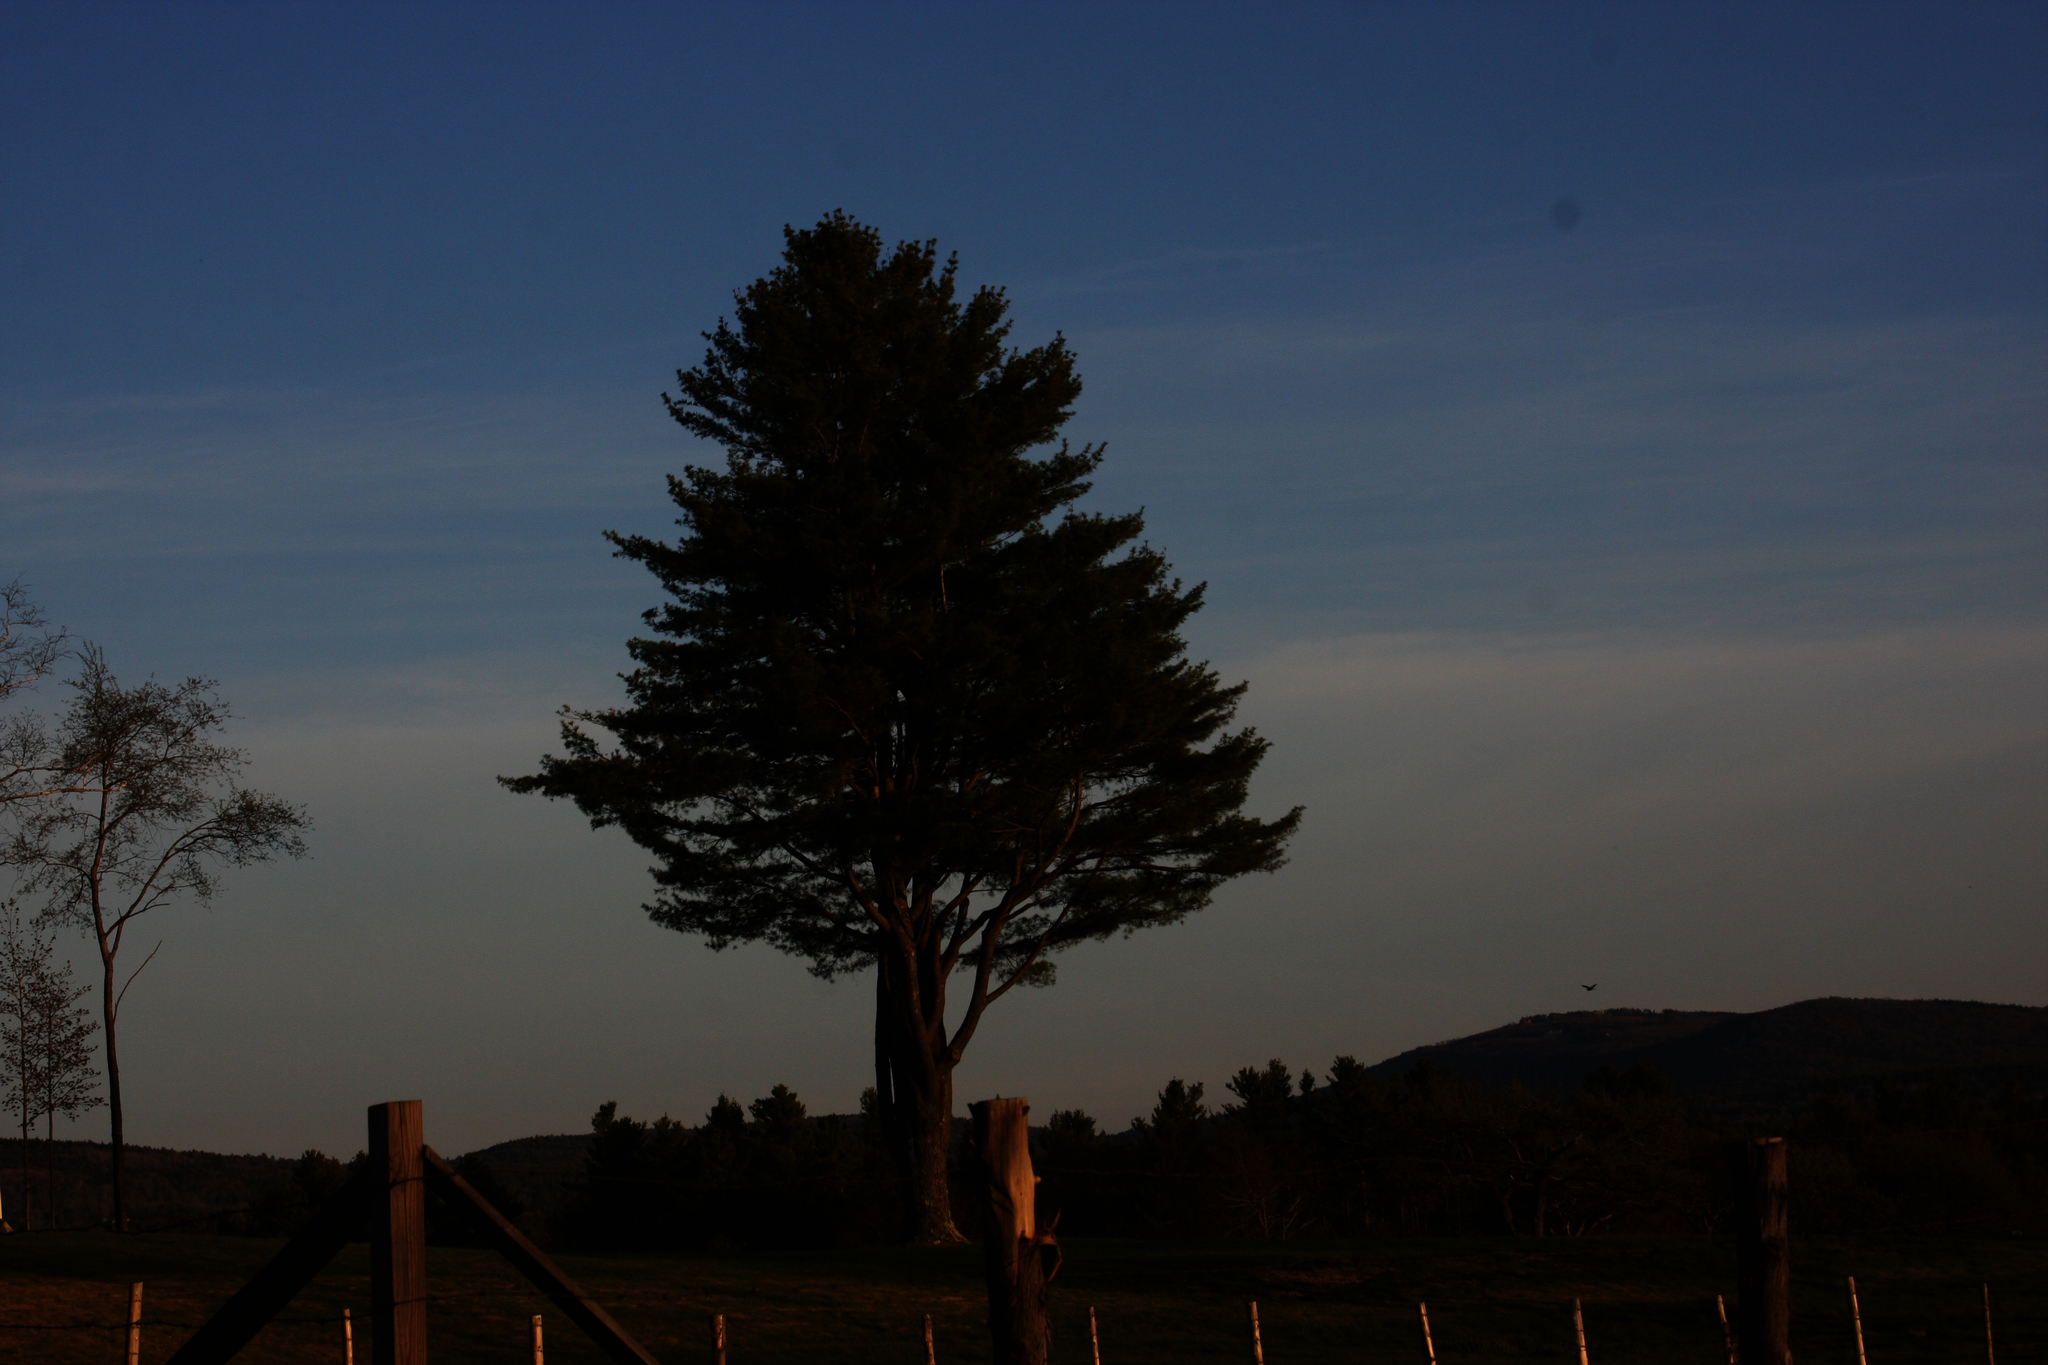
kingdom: Plantae
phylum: Tracheophyta
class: Pinopsida
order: Pinales
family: Pinaceae
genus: Pinus
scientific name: Pinus strobus
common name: Weymouth pine
